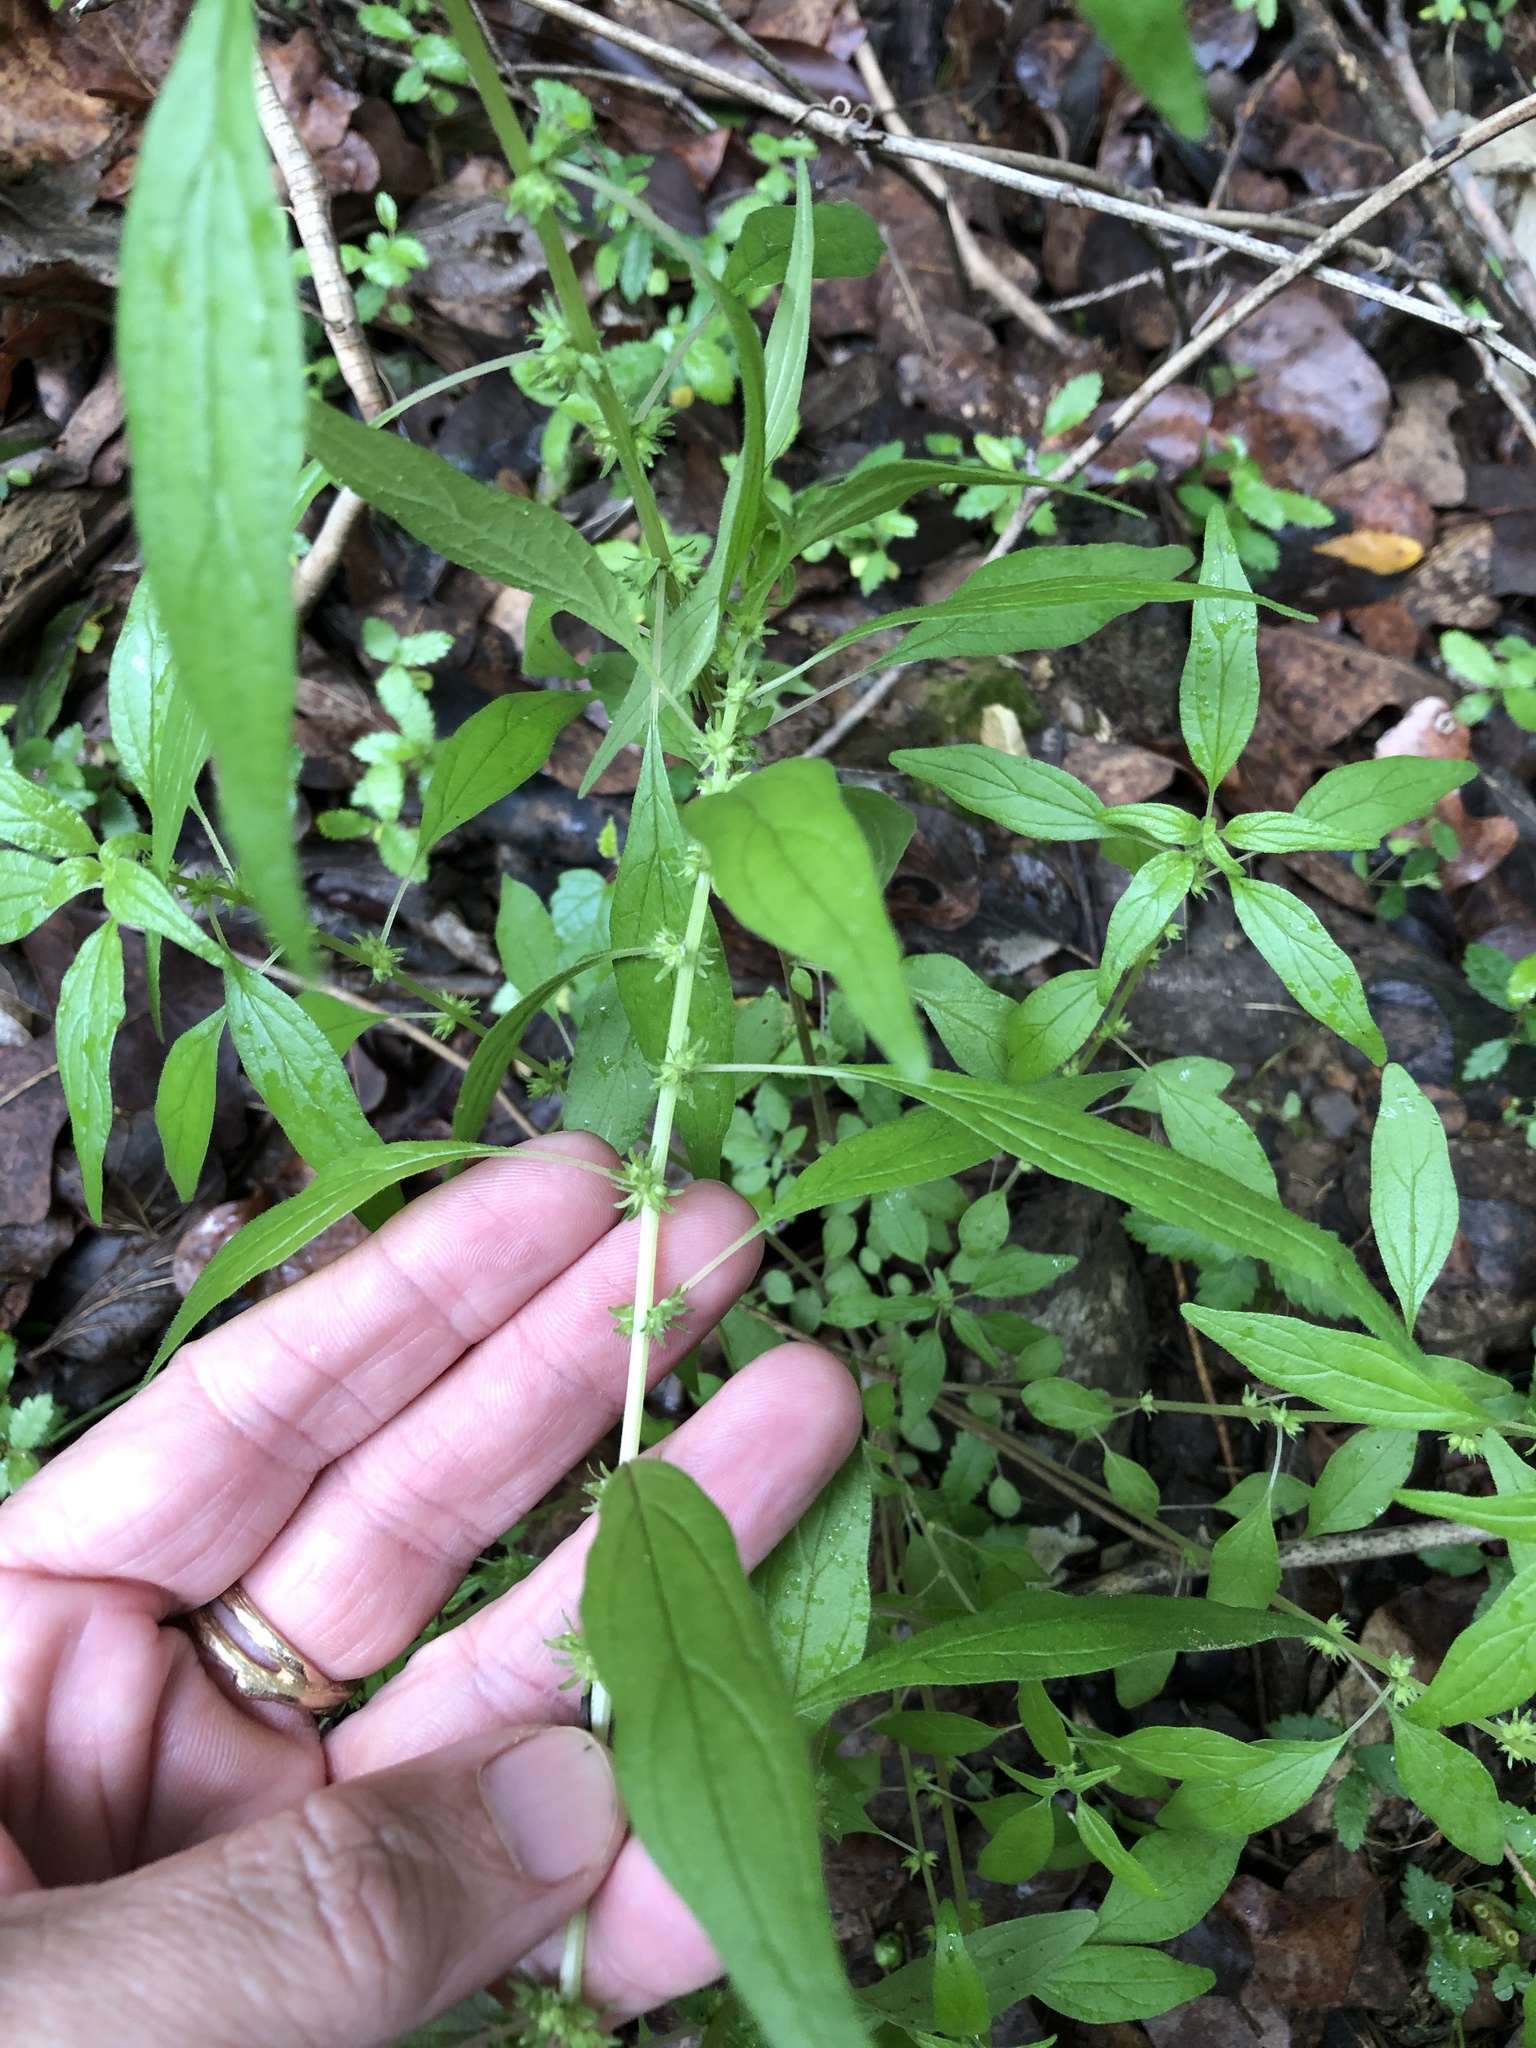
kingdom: Plantae
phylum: Tracheophyta
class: Magnoliopsida
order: Rosales
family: Urticaceae
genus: Parietaria
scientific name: Parietaria pensylvanica
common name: Pennsylvania pellitory
